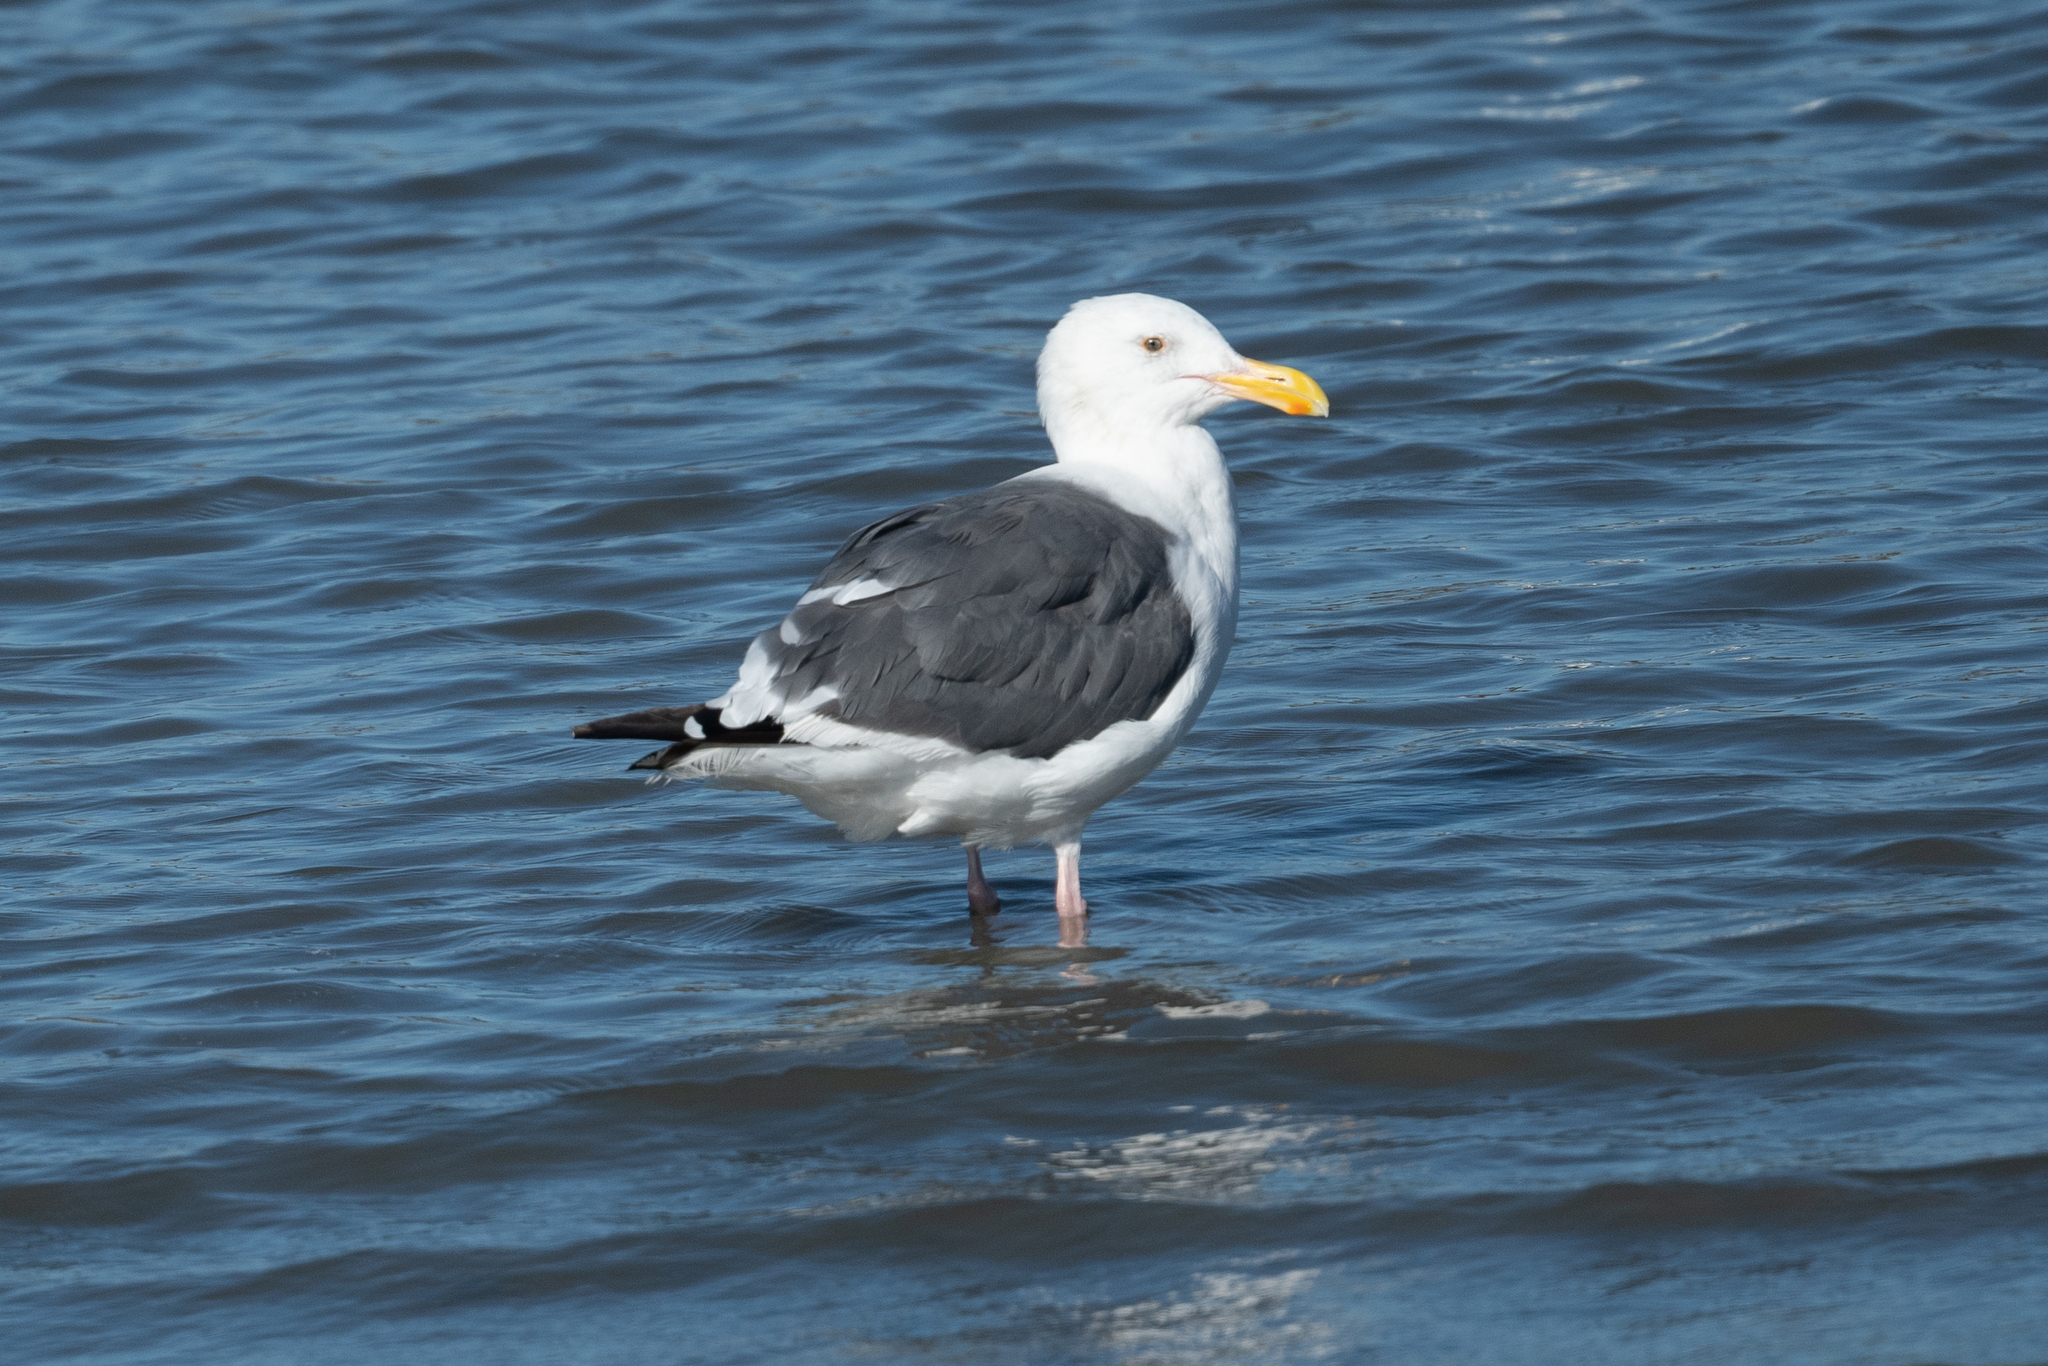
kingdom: Animalia
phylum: Chordata
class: Aves
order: Charadriiformes
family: Laridae
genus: Larus
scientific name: Larus occidentalis
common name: Western gull
